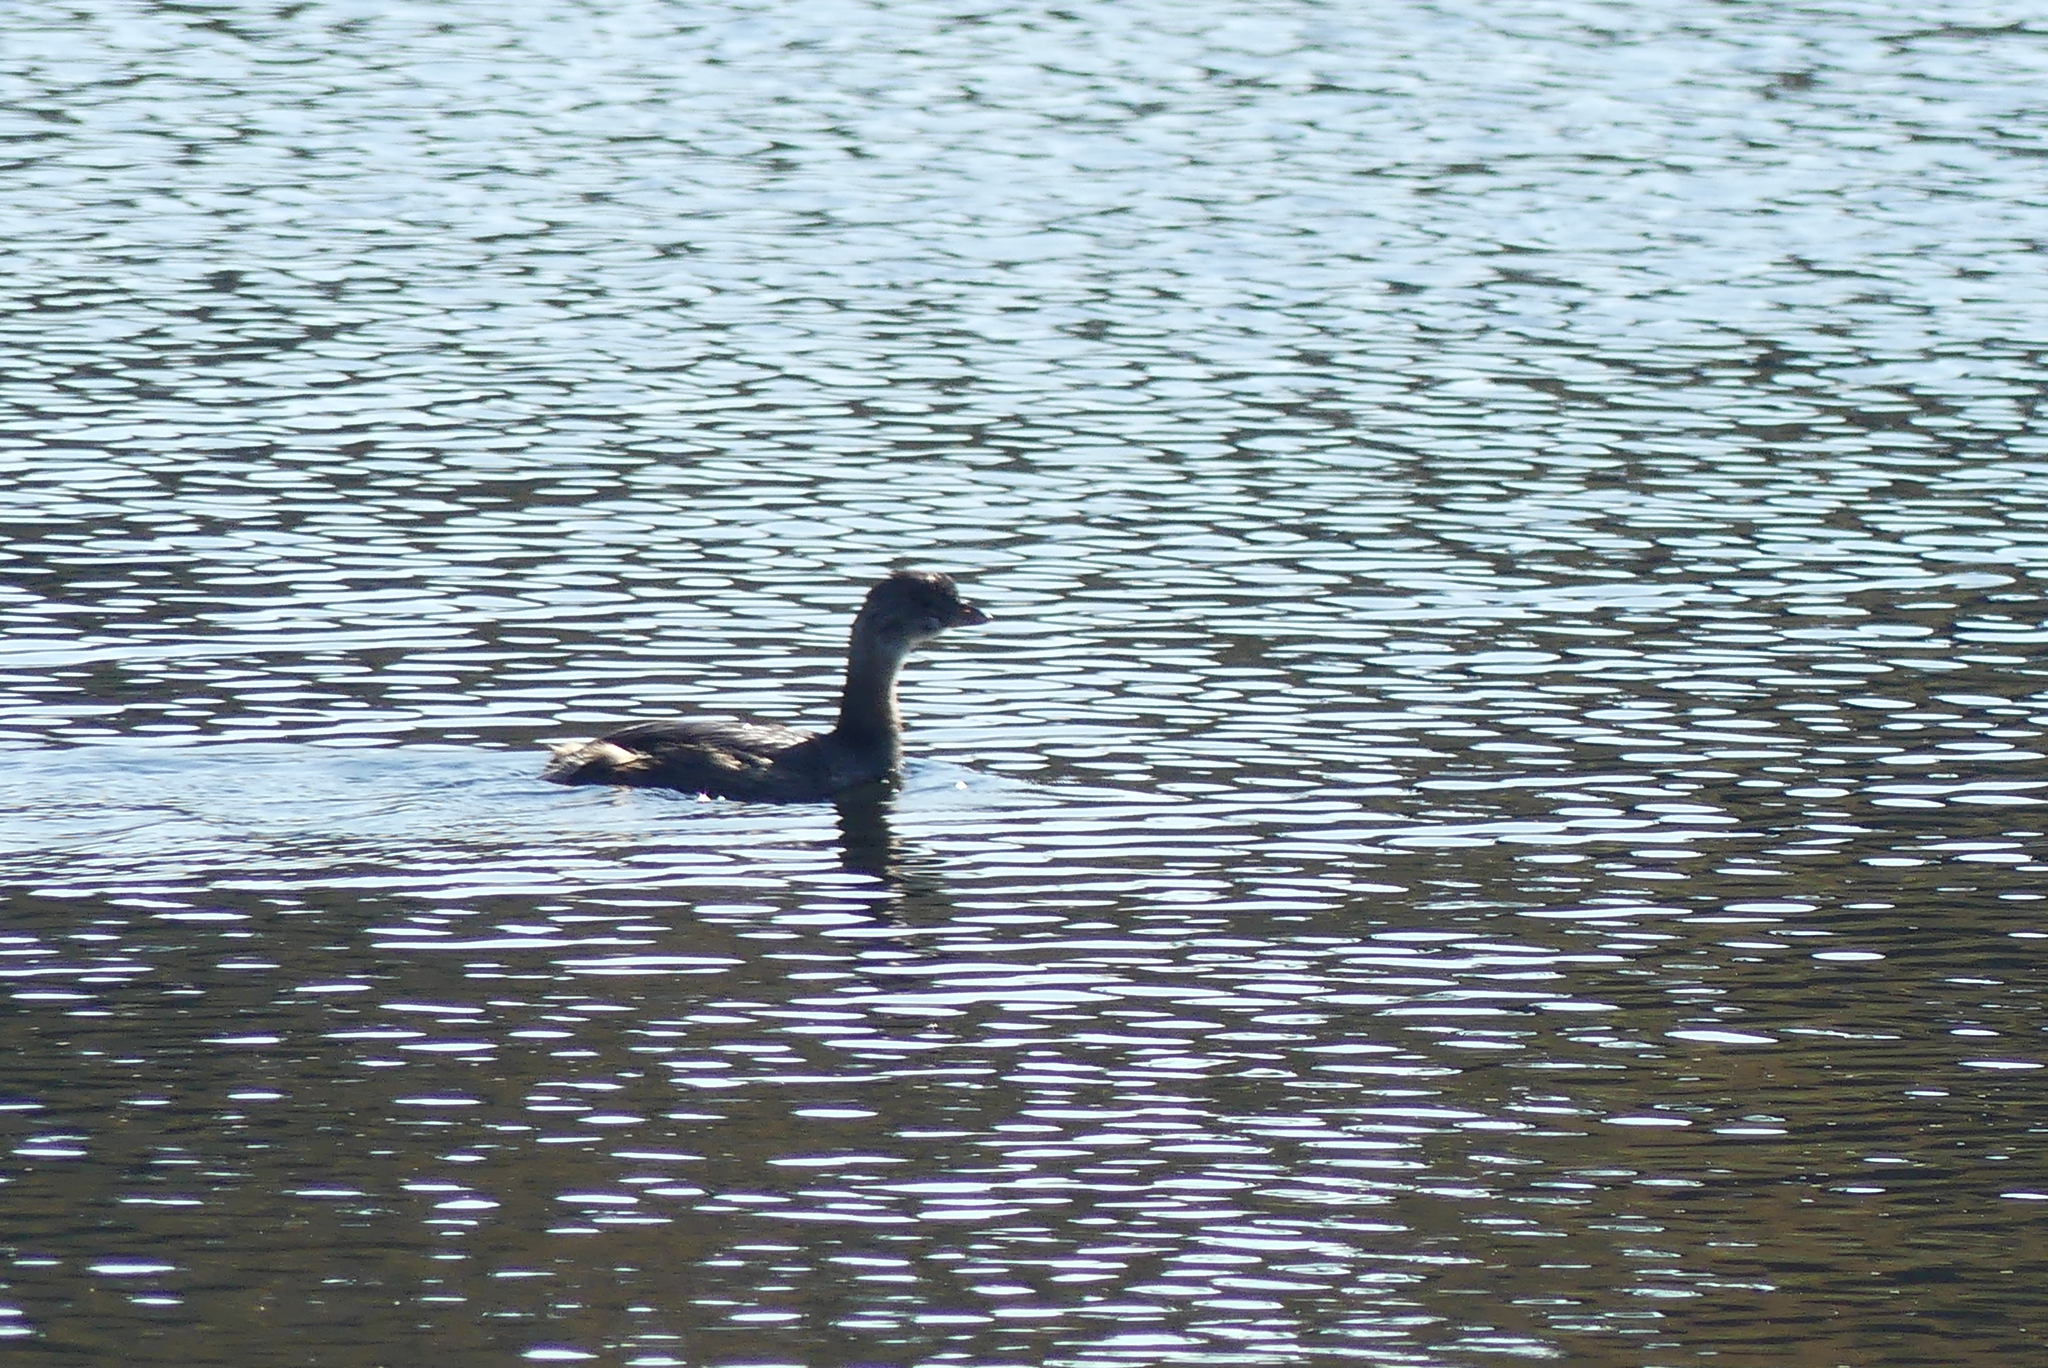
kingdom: Animalia
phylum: Chordata
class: Aves
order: Podicipediformes
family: Podicipedidae
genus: Podilymbus
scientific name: Podilymbus podiceps
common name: Pied-billed grebe
